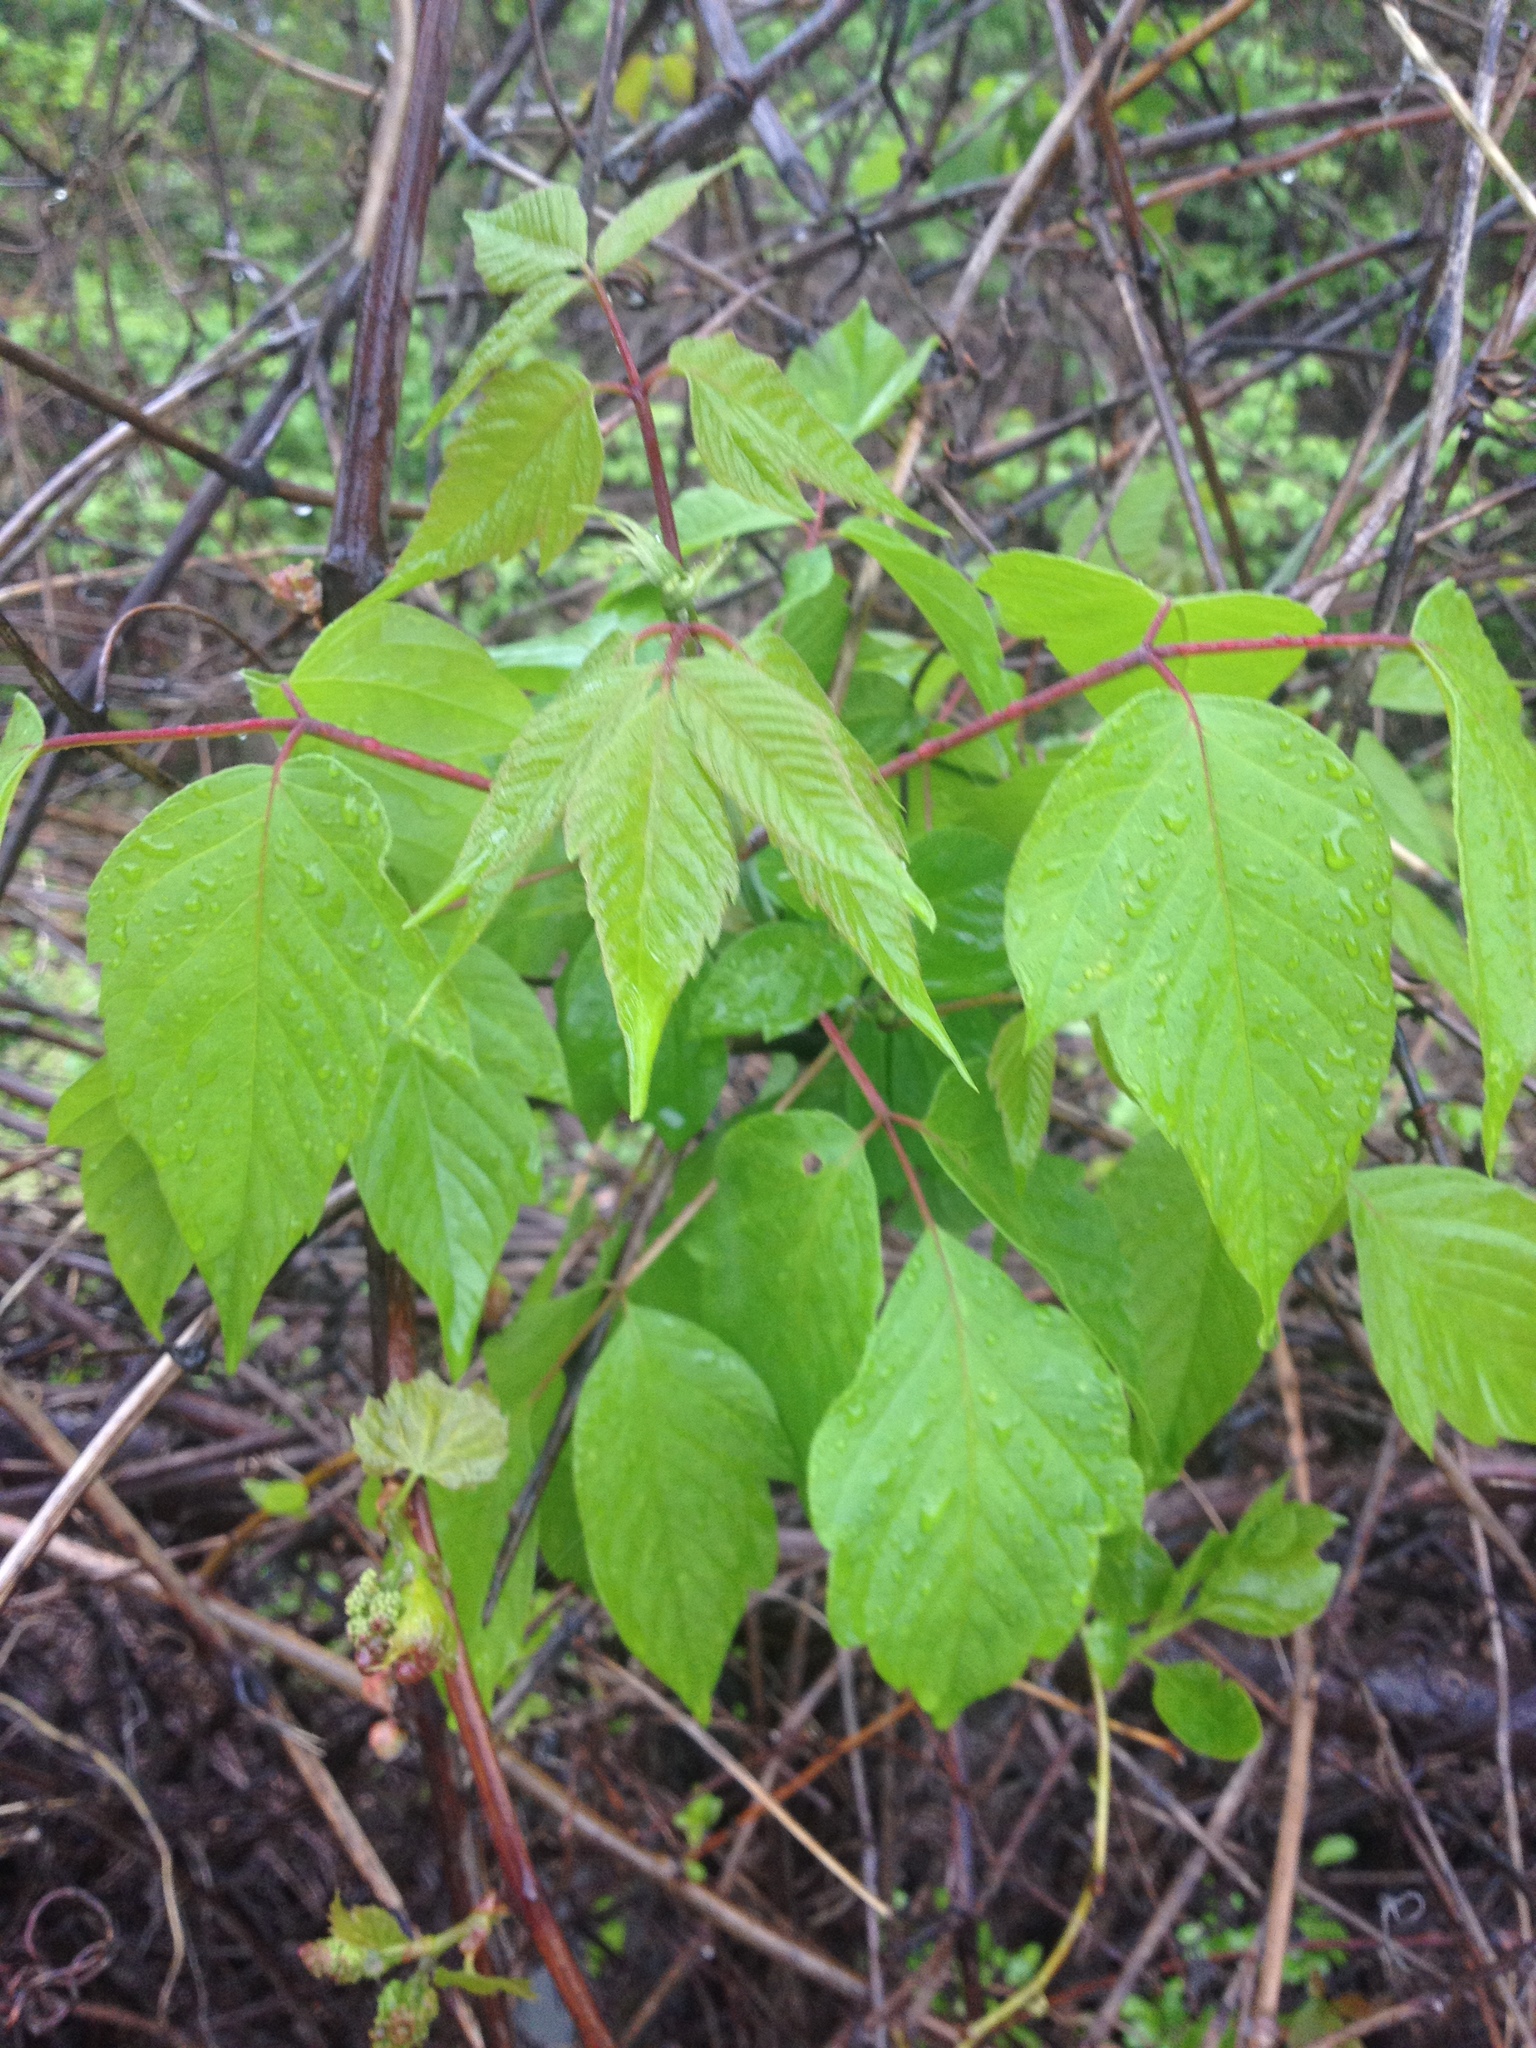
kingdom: Plantae
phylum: Tracheophyta
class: Magnoliopsida
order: Sapindales
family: Sapindaceae
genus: Acer
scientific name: Acer negundo
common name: Ashleaf maple
